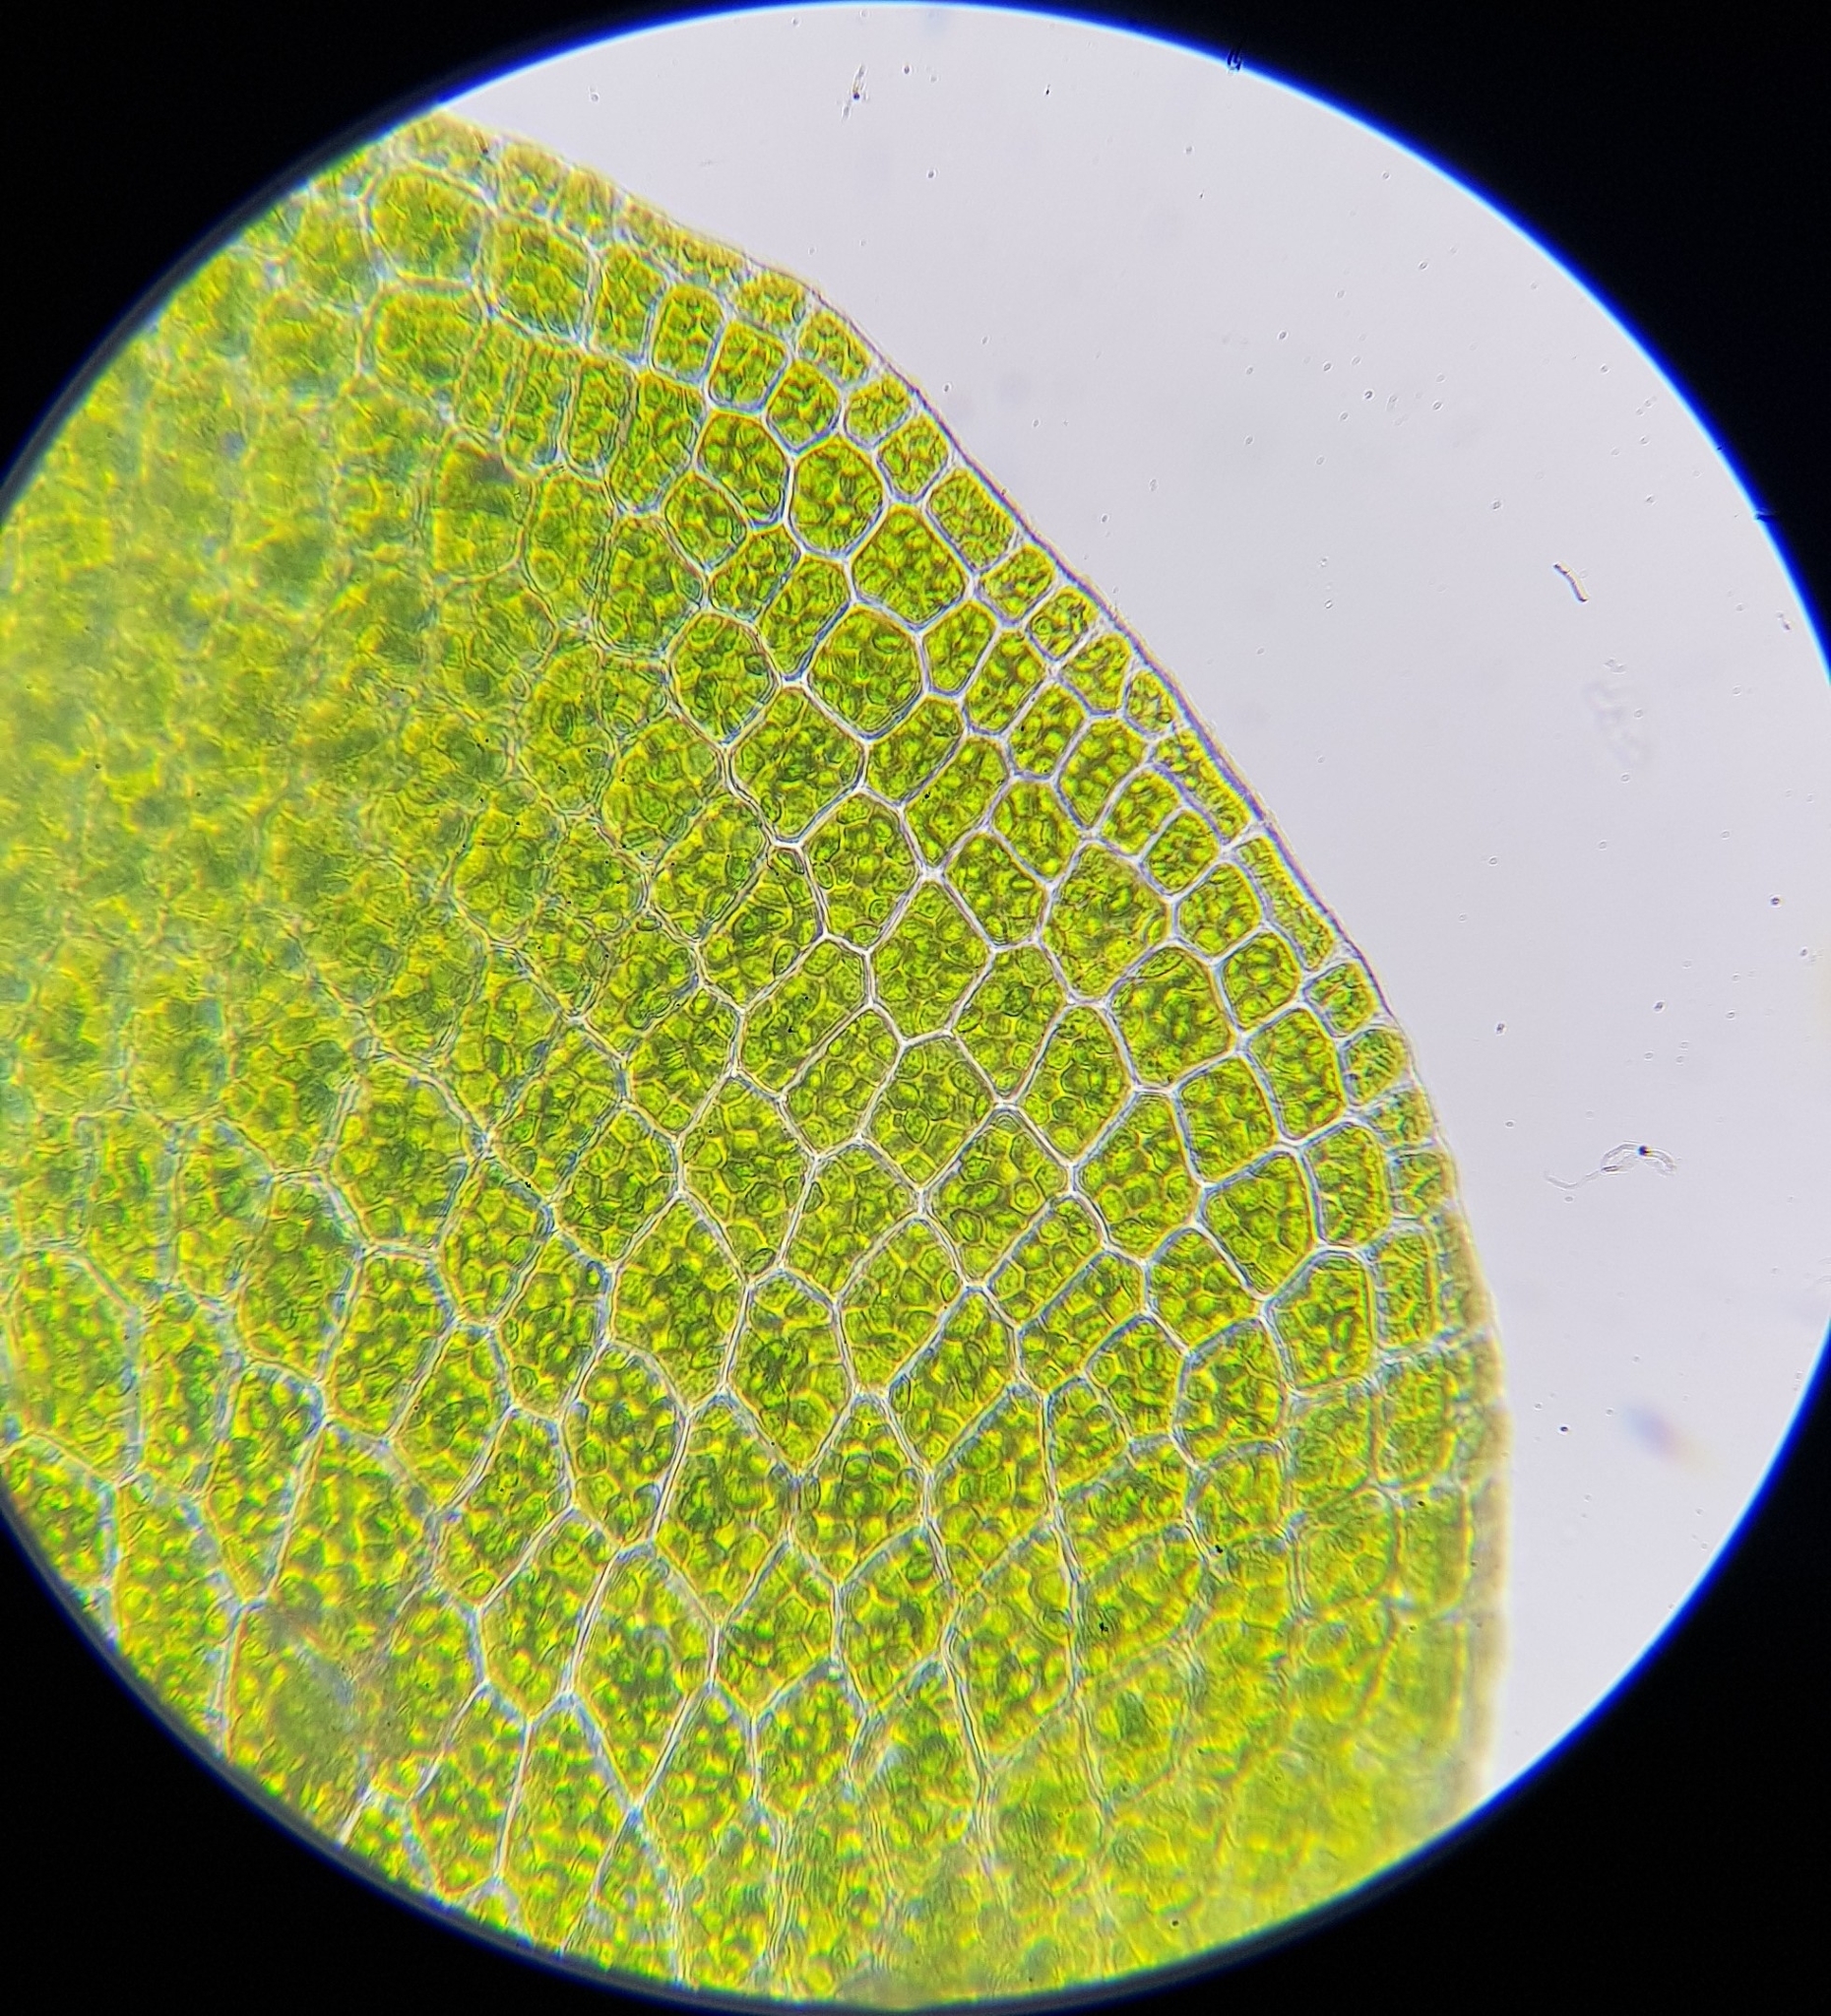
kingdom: Plantae
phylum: Bryophyta
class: Polytrichopsida
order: Tetraphidales
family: Tetraphidaceae
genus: Tetraphis
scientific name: Tetraphis pellucida
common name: Common four-toothed moss
